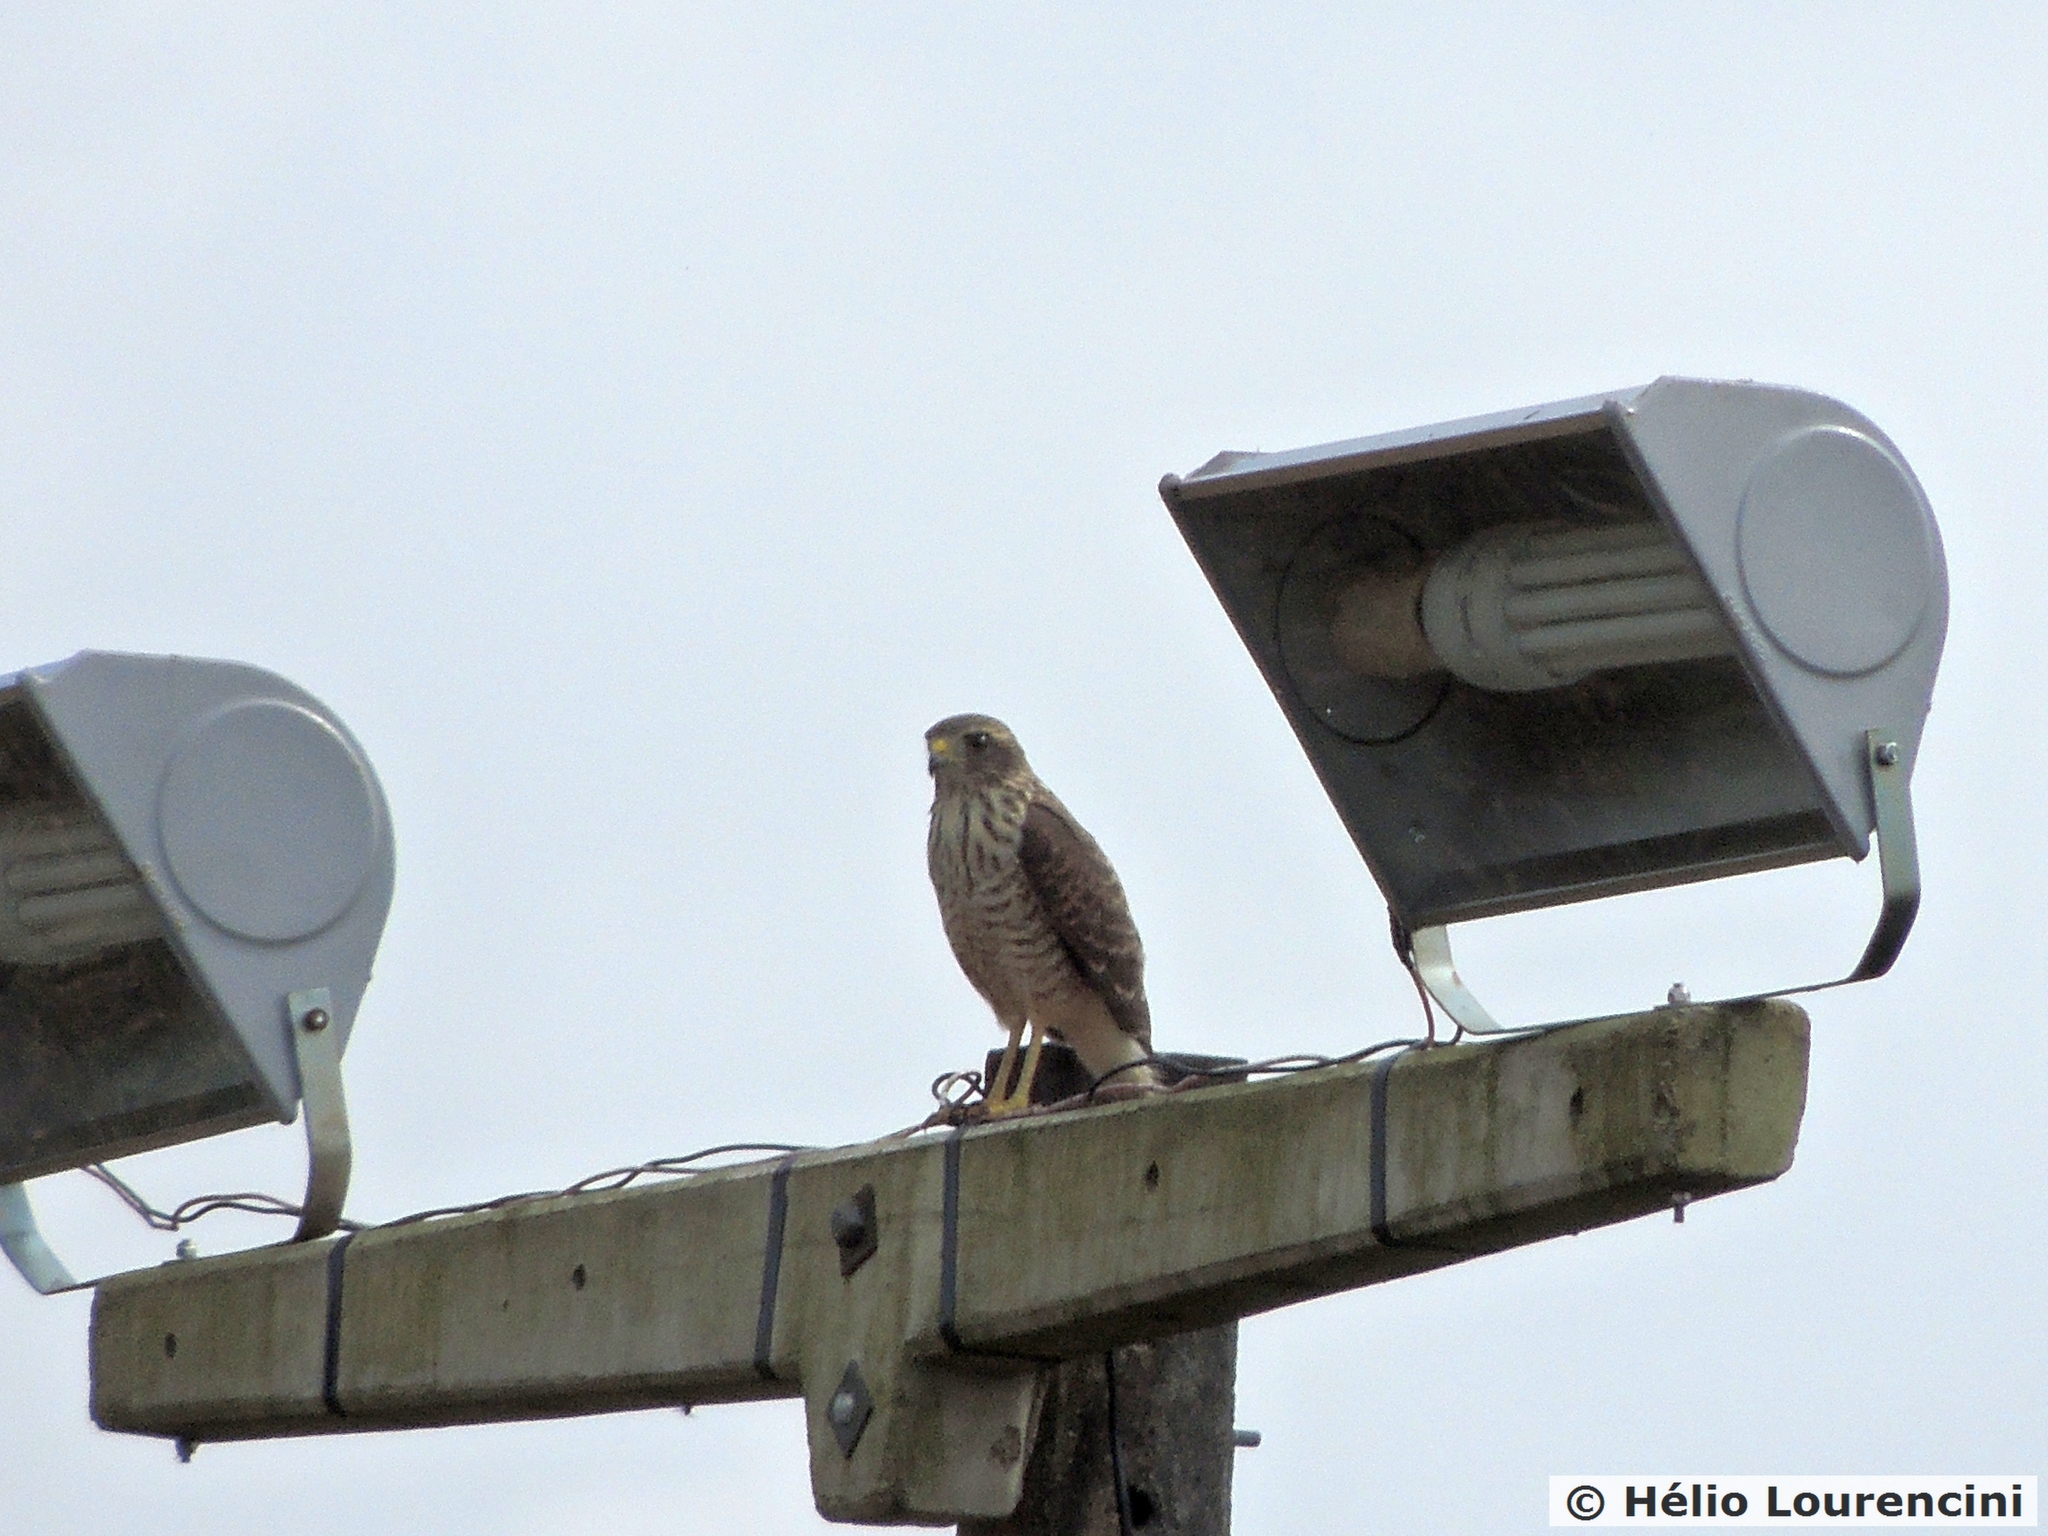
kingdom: Animalia
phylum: Chordata
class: Aves
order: Accipitriformes
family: Accipitridae
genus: Rupornis
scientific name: Rupornis magnirostris
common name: Roadside hawk
